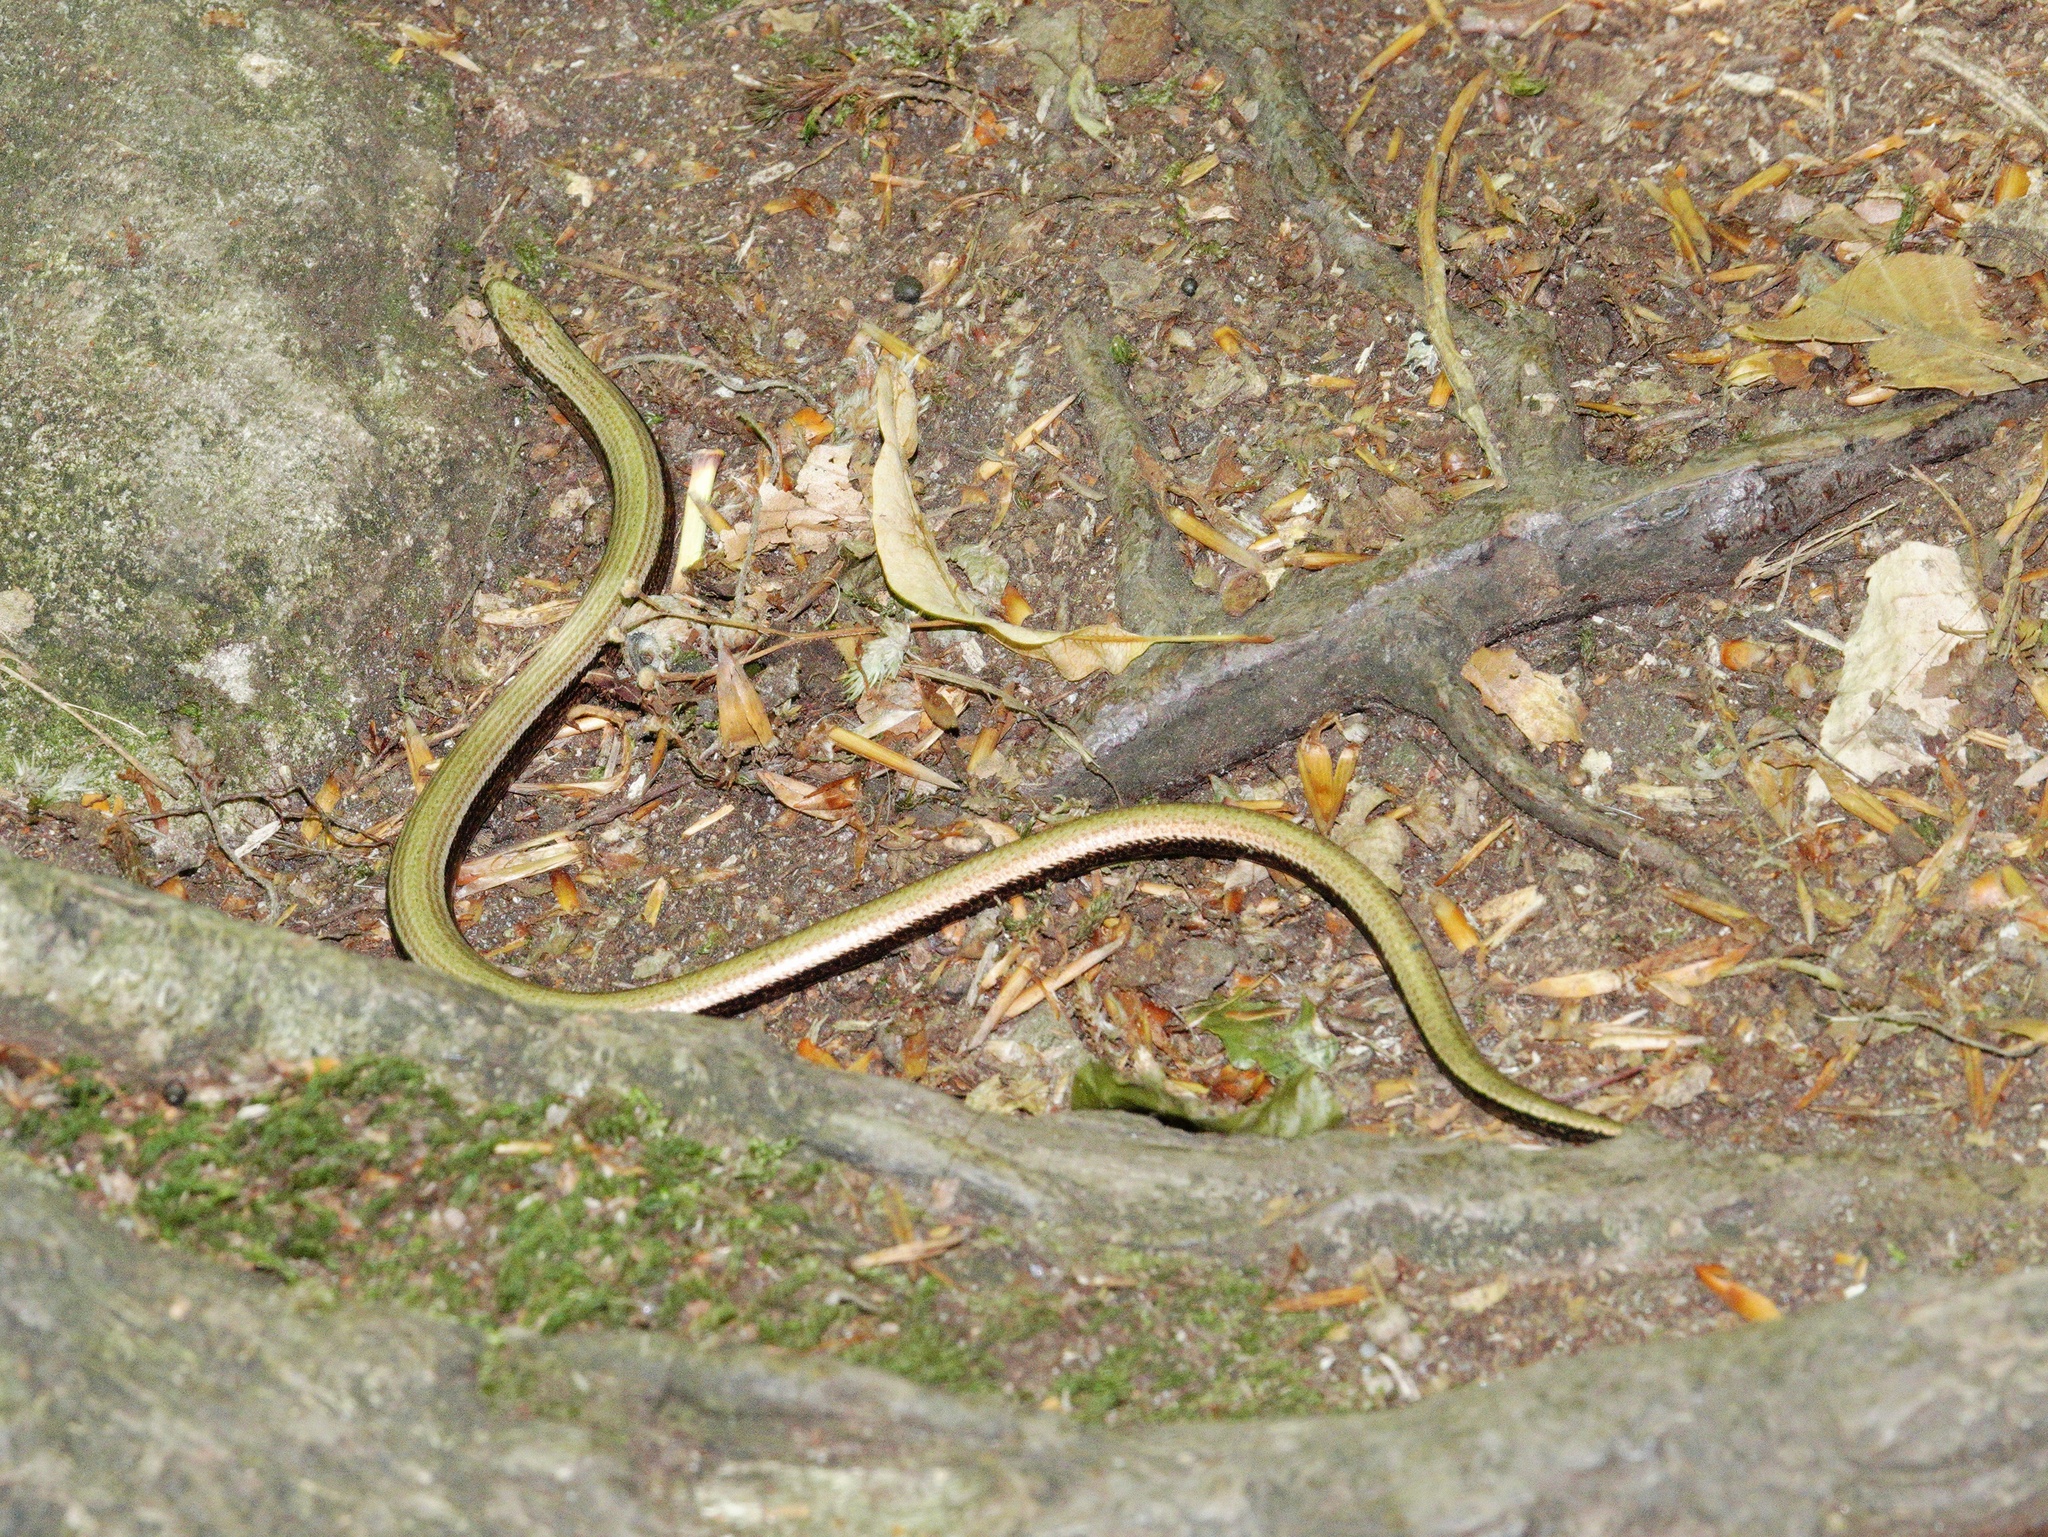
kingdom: Animalia
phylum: Chordata
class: Squamata
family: Anguidae
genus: Anguis
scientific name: Anguis fragilis
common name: Slow worm
